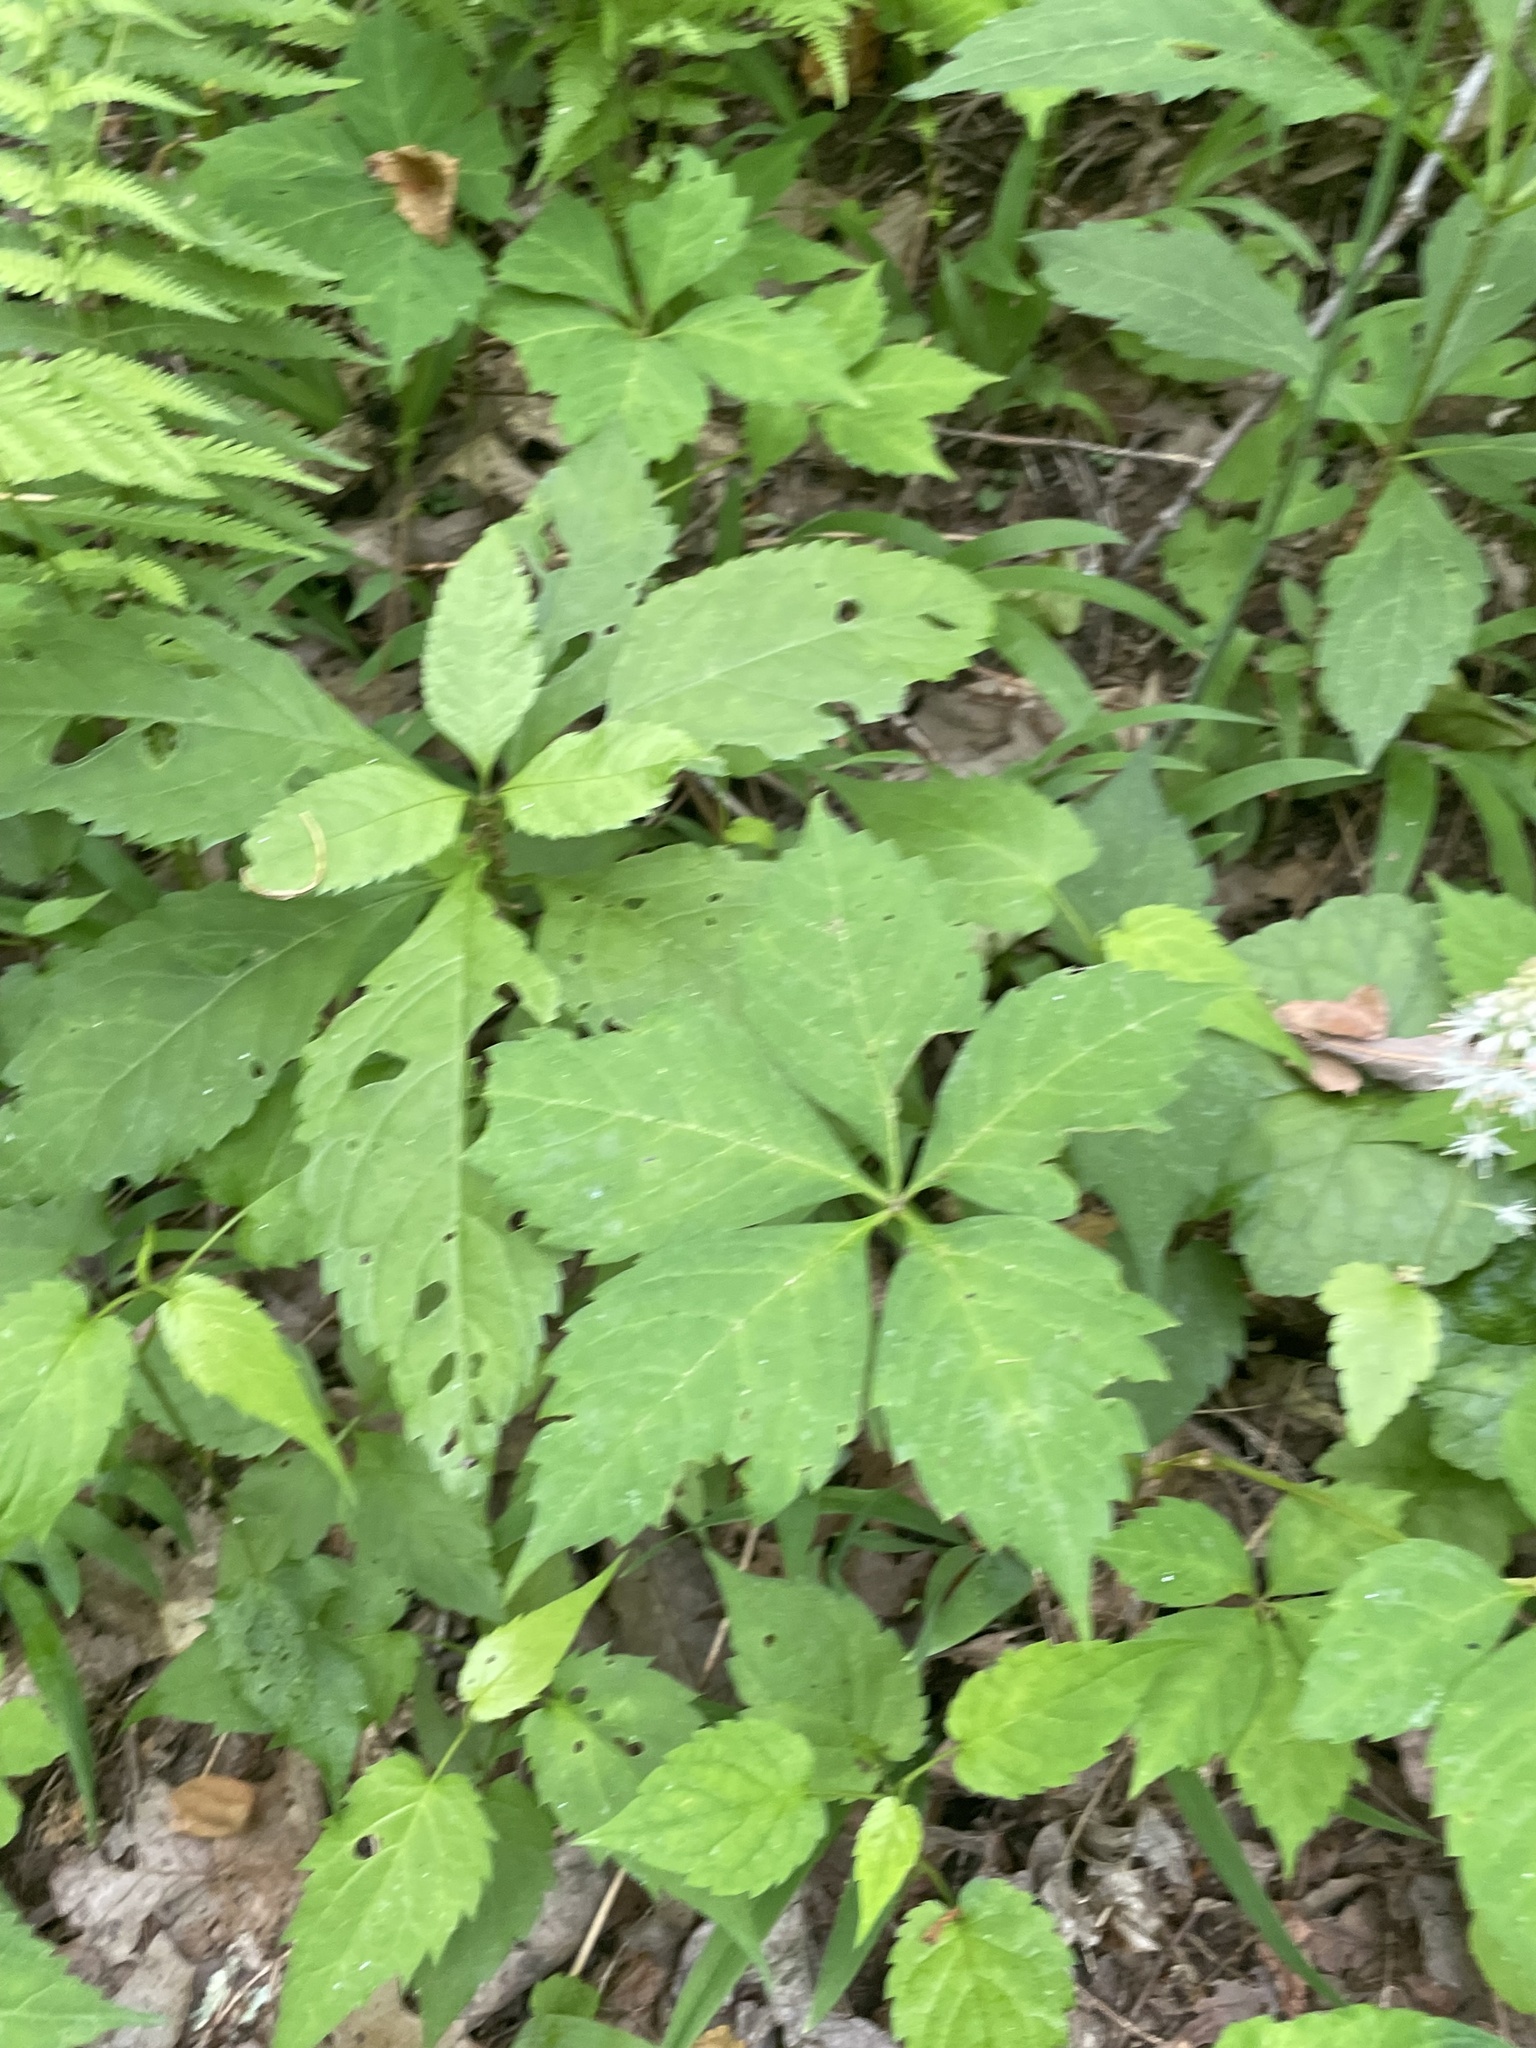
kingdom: Plantae
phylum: Tracheophyta
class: Magnoliopsida
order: Vitales
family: Vitaceae
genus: Parthenocissus
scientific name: Parthenocissus quinquefolia
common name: Virginia-creeper
